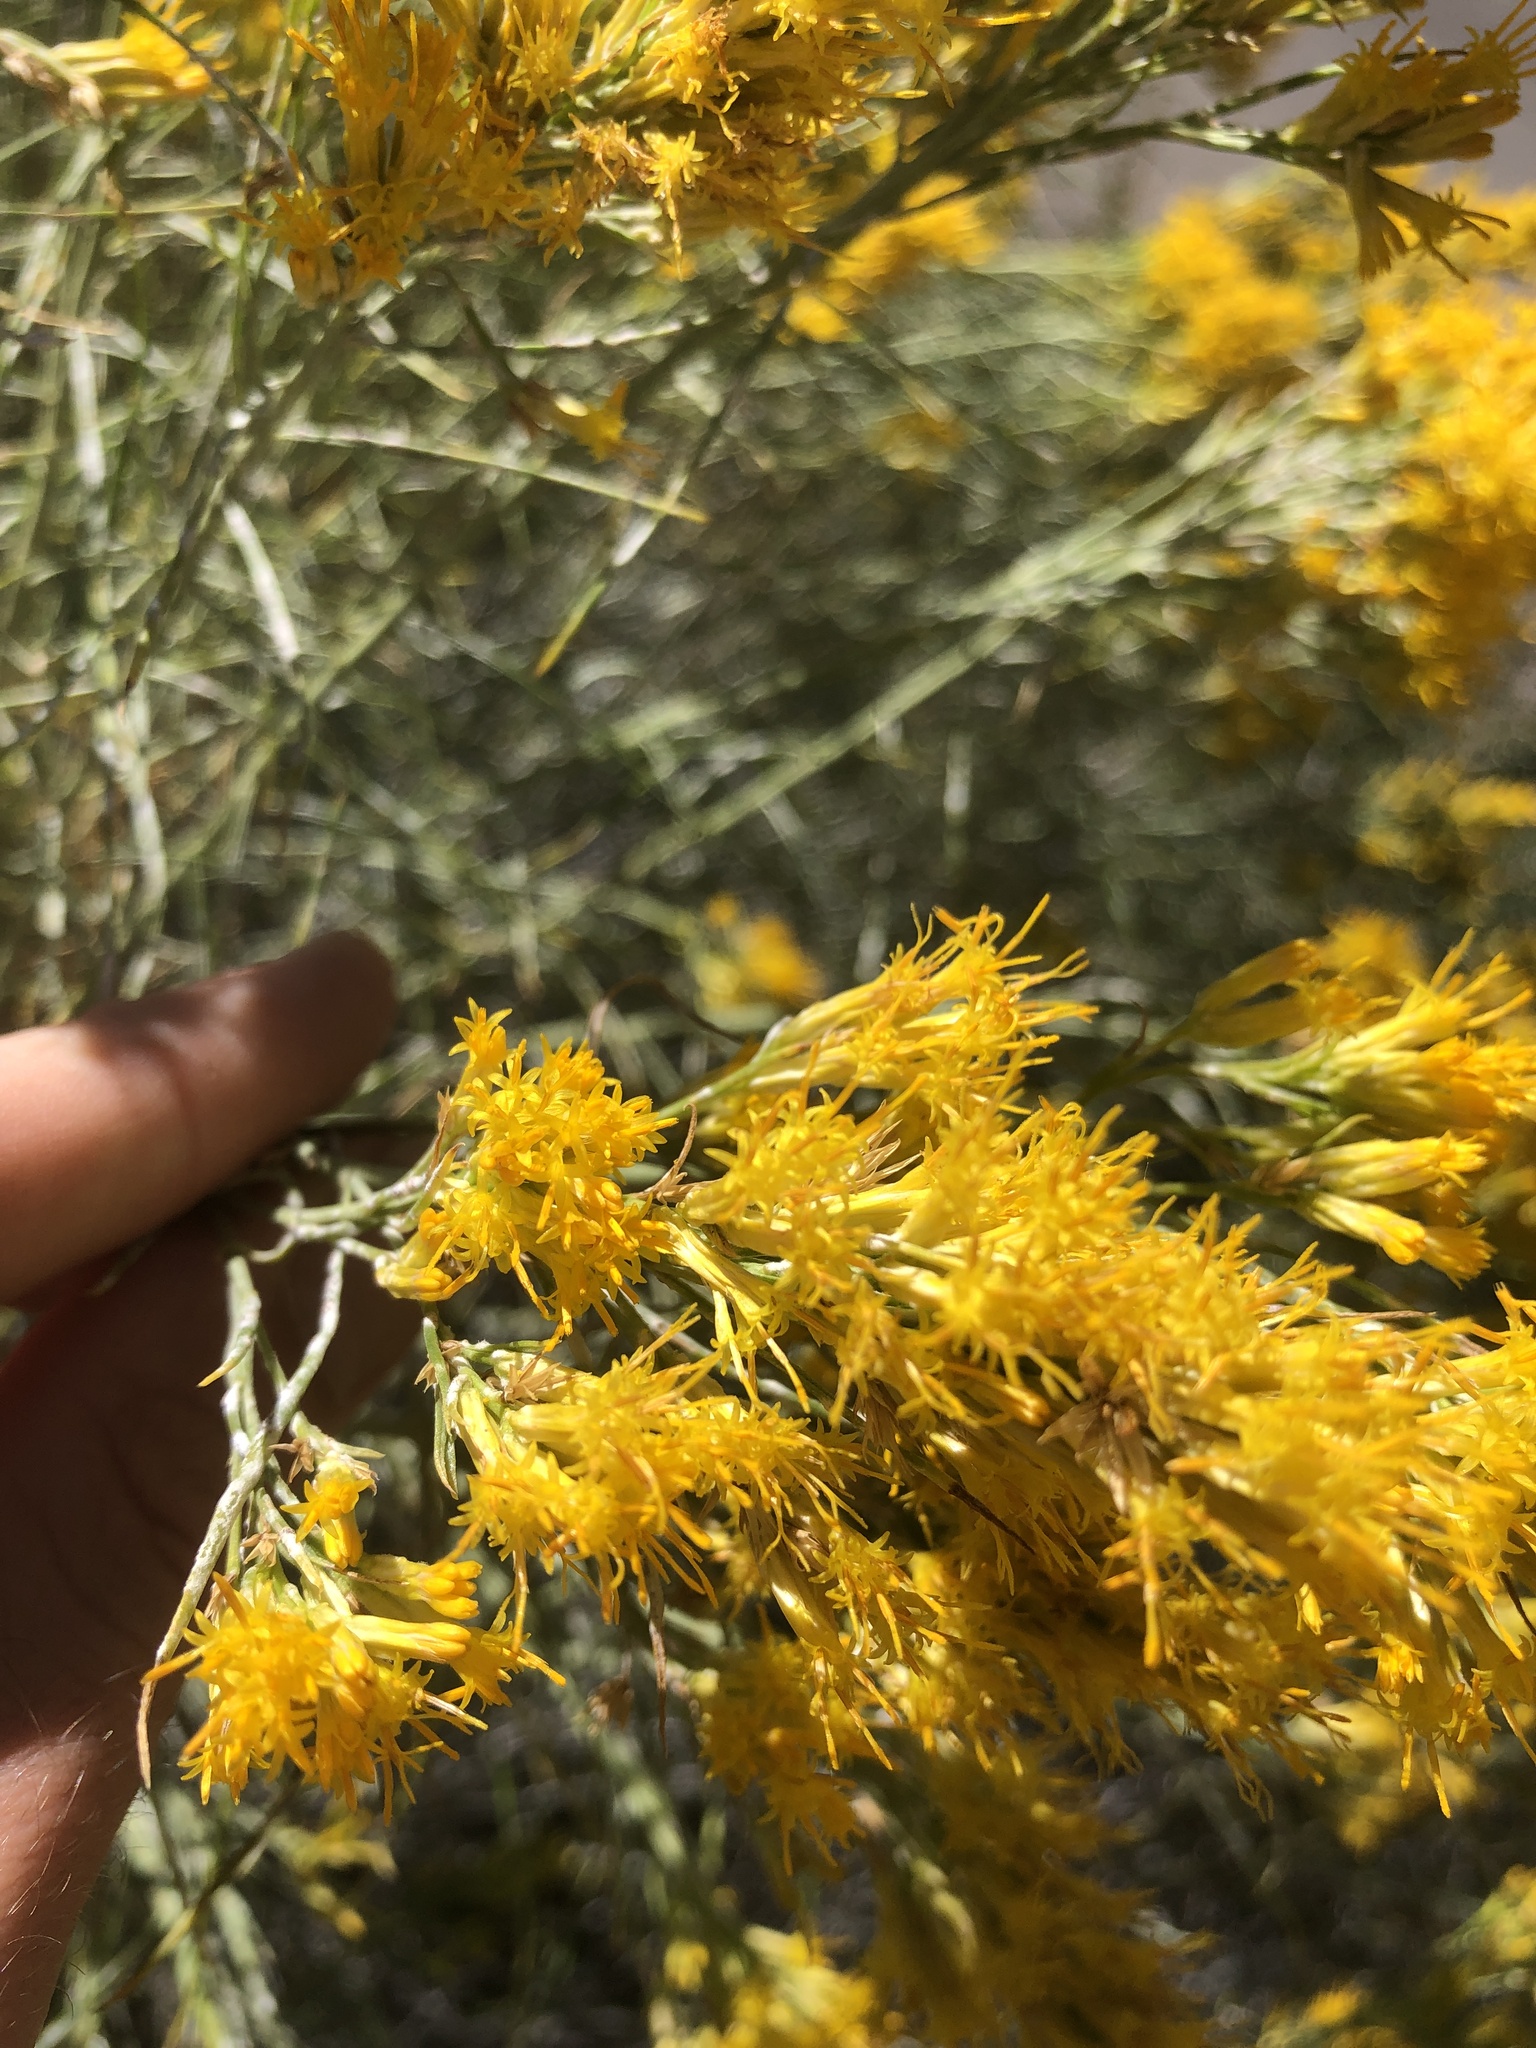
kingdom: Plantae
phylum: Tracheophyta
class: Magnoliopsida
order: Asterales
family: Asteraceae
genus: Ericameria
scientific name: Ericameria nauseosa
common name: Rubber rabbitbrush
